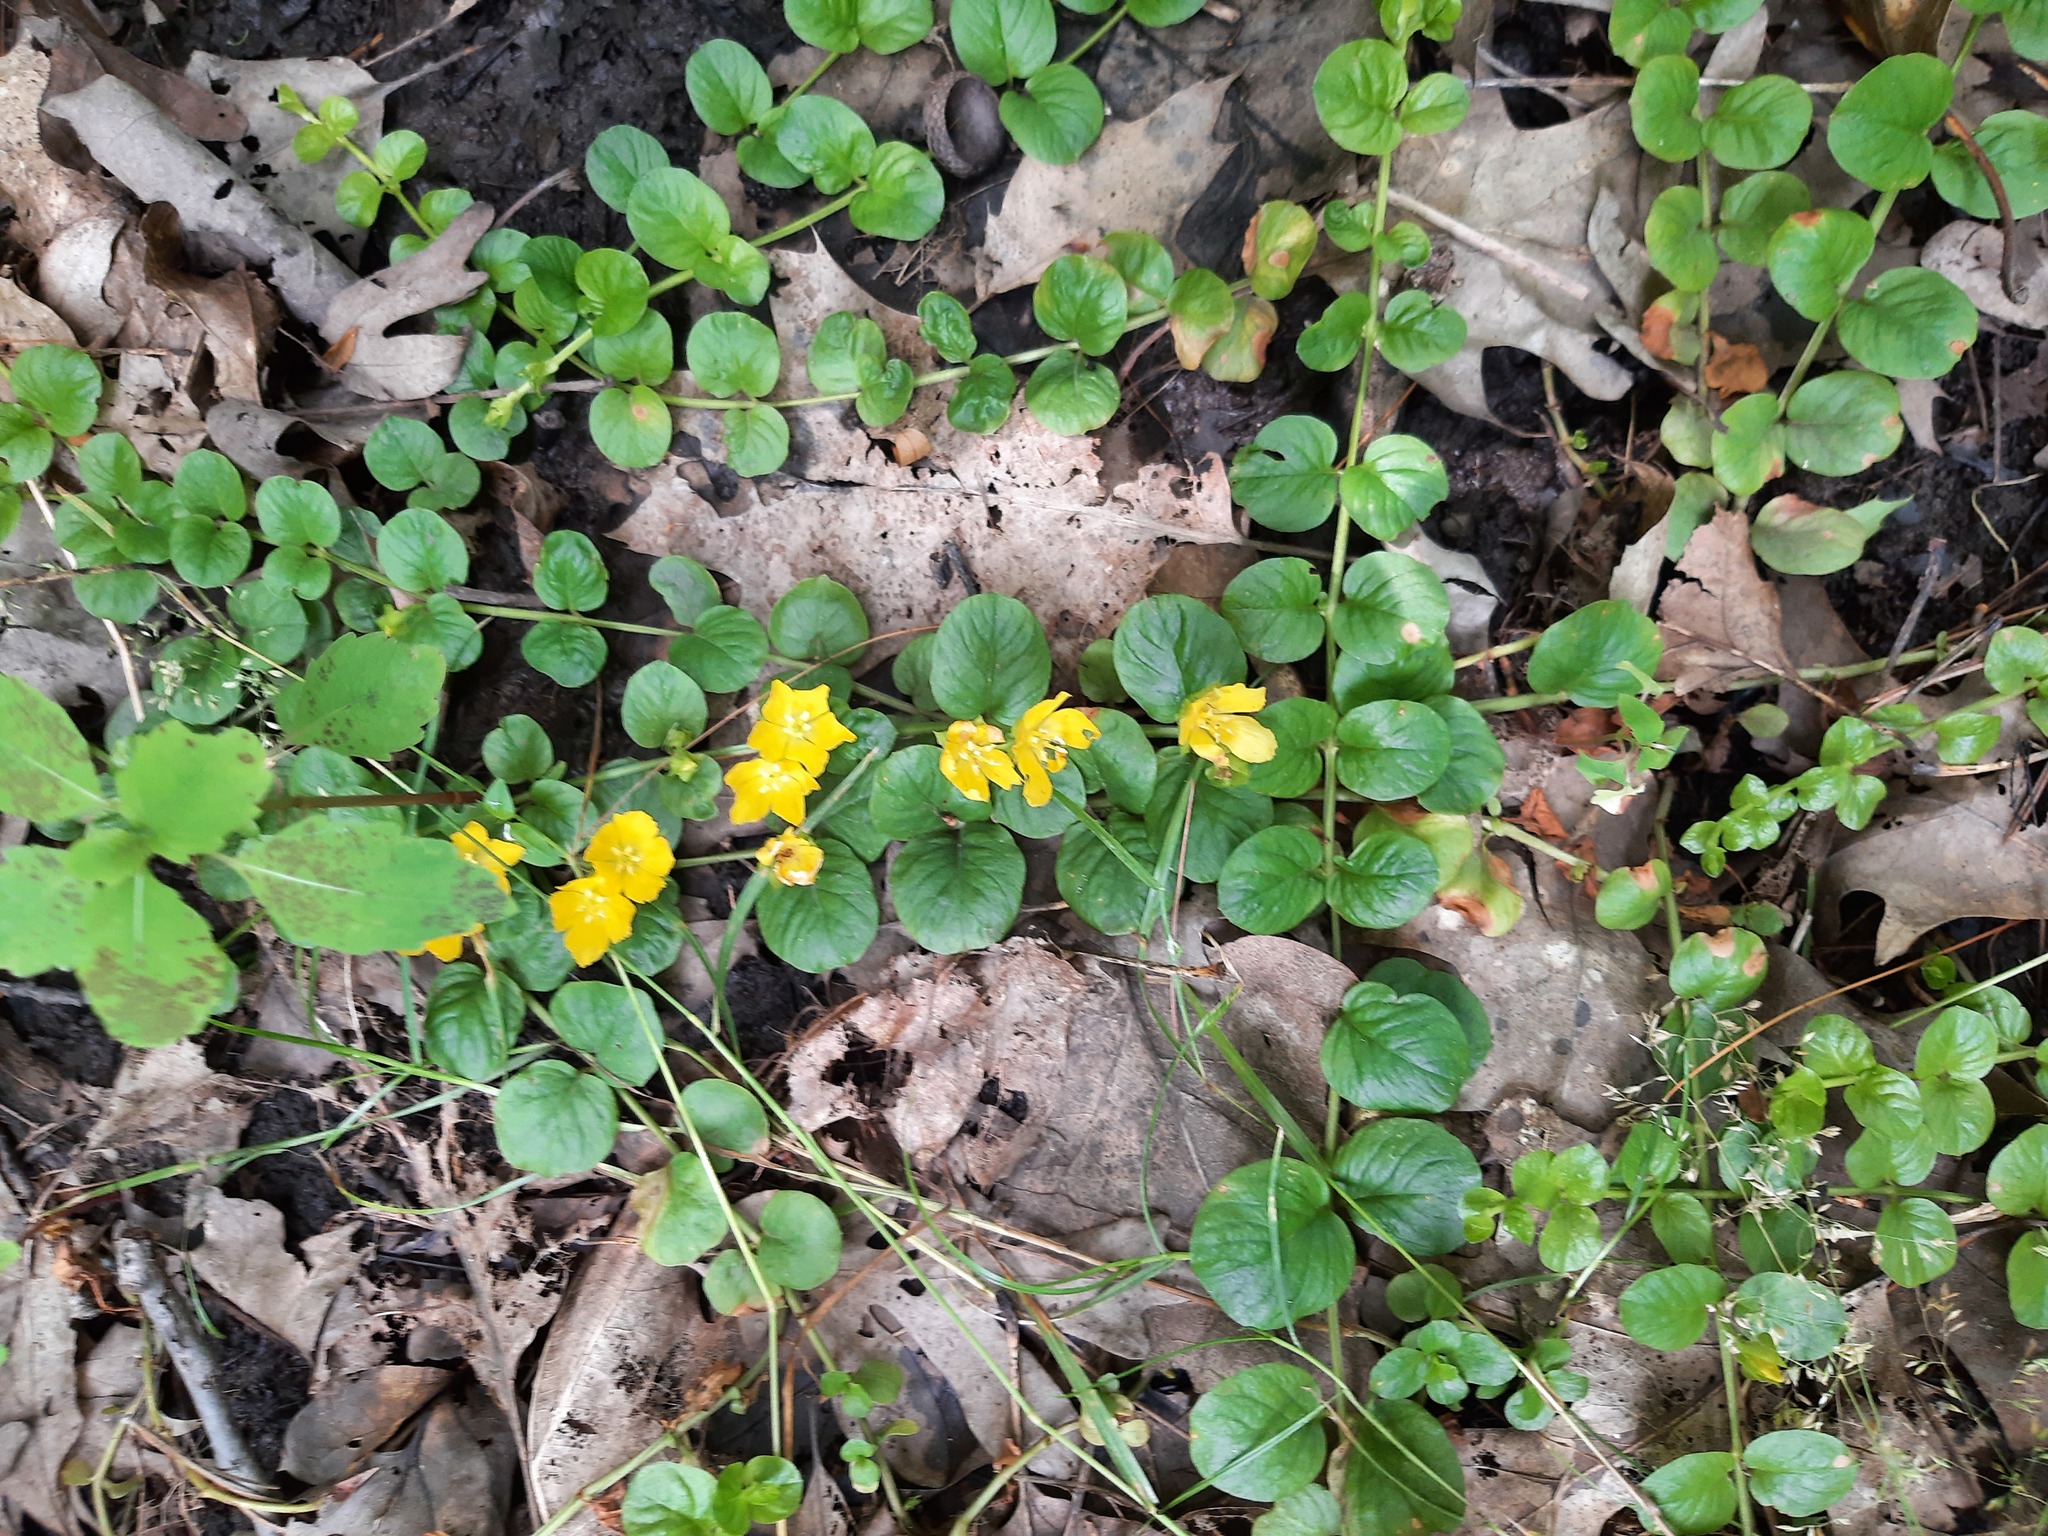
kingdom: Plantae
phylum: Tracheophyta
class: Magnoliopsida
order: Ericales
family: Primulaceae
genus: Lysimachia
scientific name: Lysimachia nummularia
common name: Moneywort
